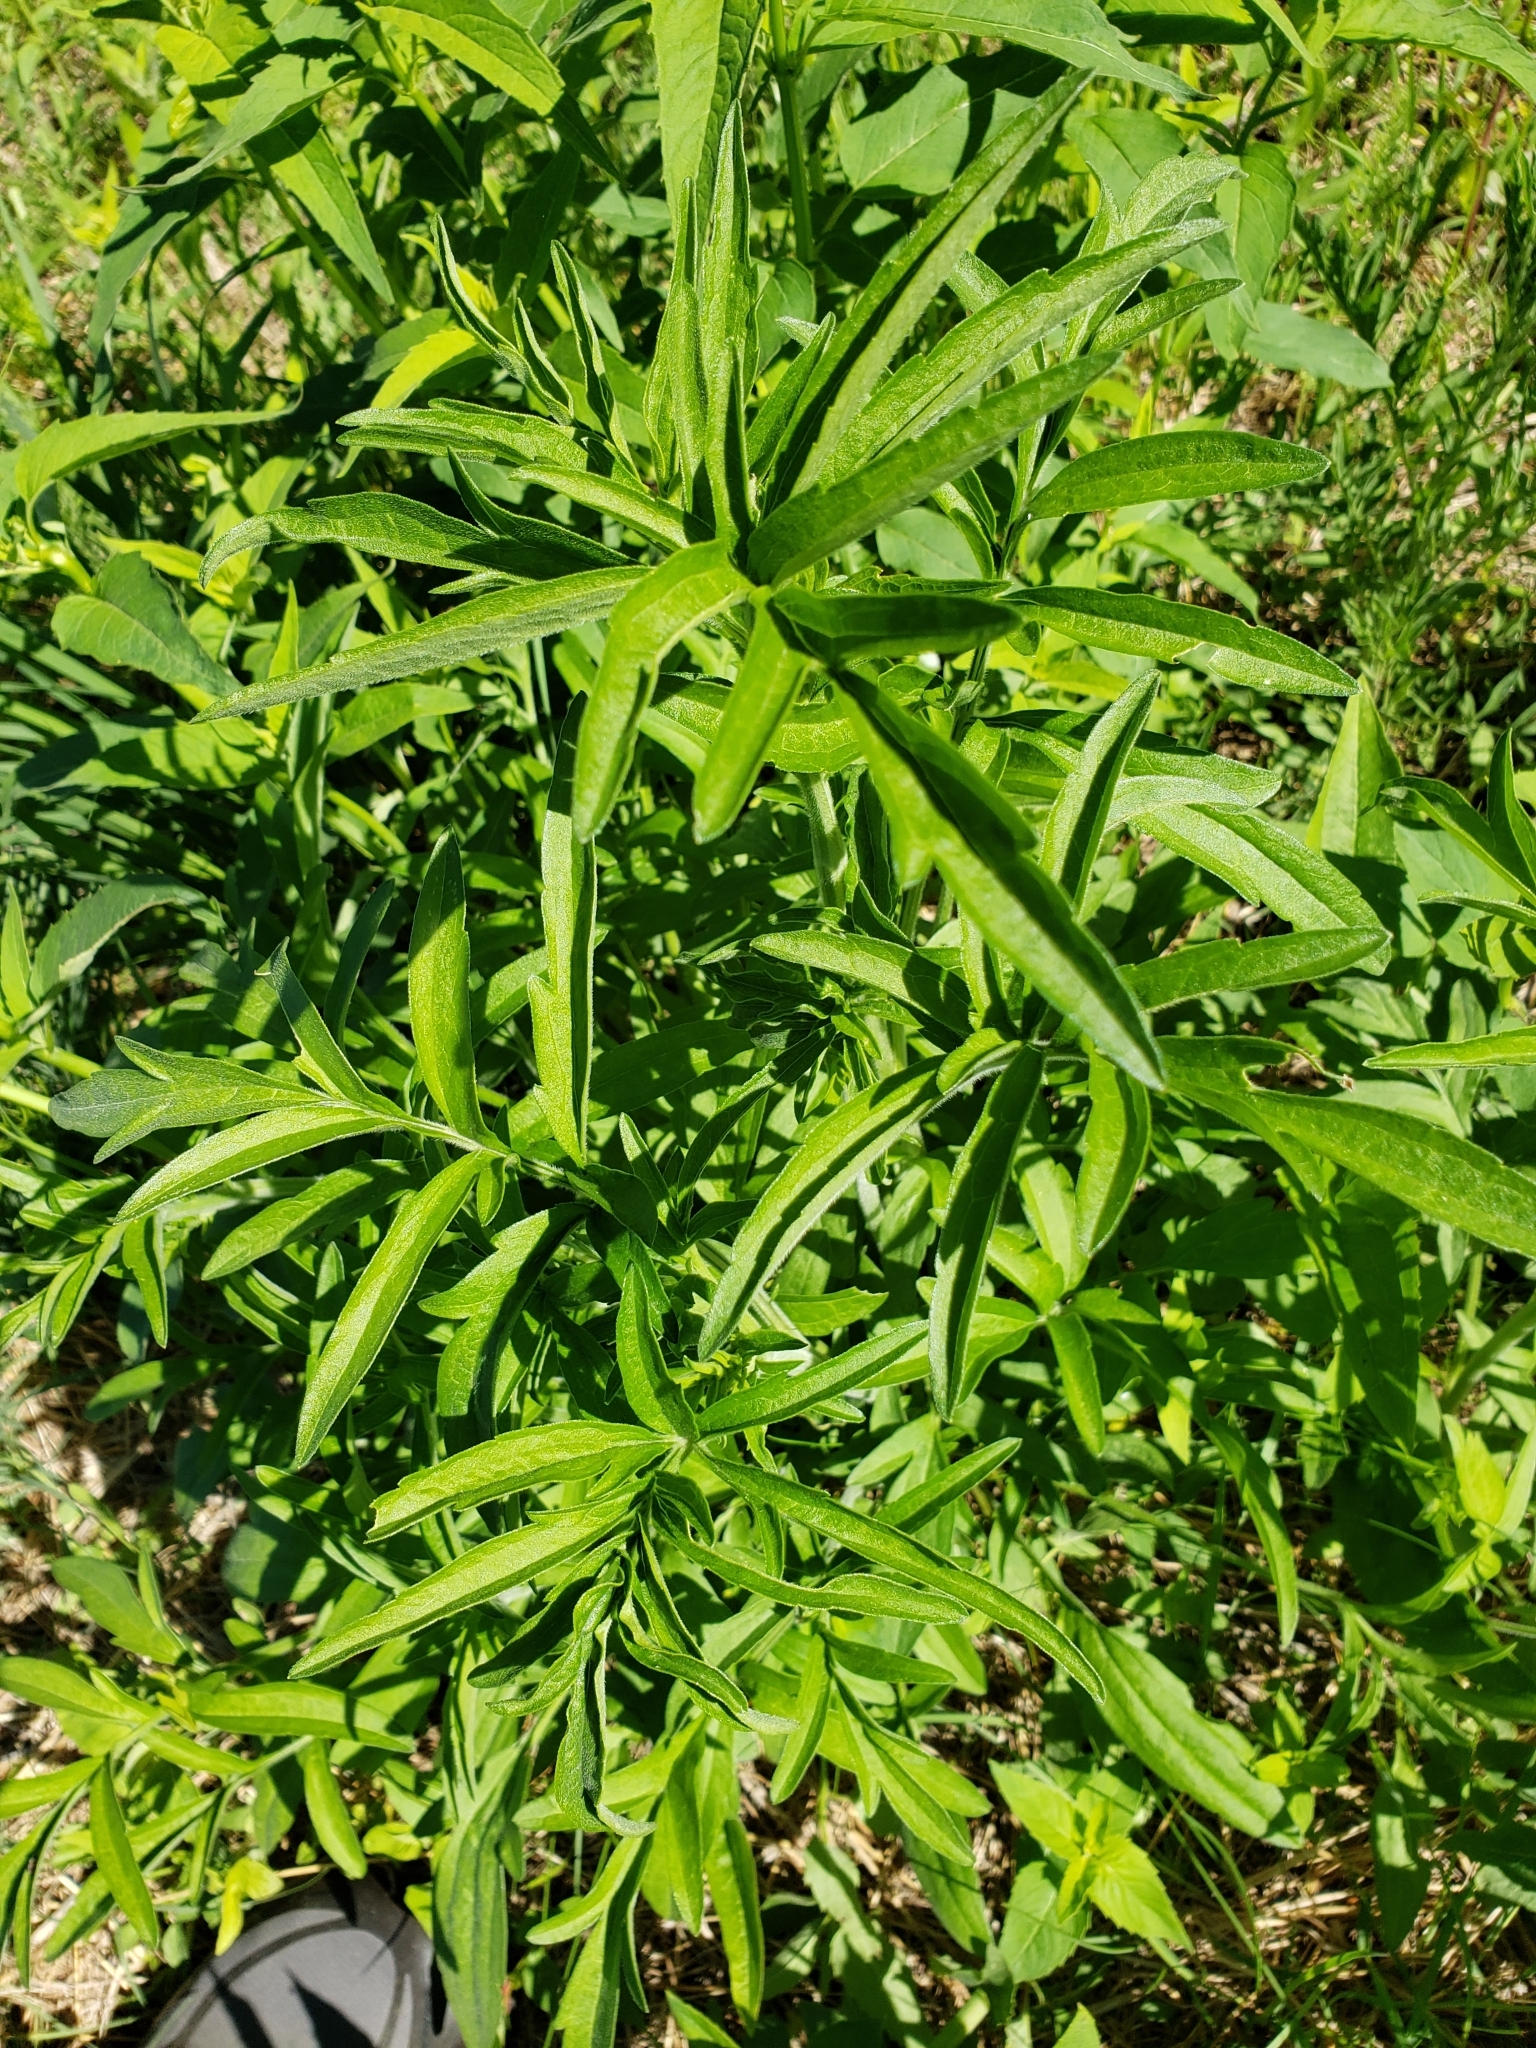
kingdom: Plantae
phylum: Tracheophyta
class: Magnoliopsida
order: Asterales
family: Asteraceae
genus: Ratibida
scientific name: Ratibida pinnata
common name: Drooping prairie-coneflower
